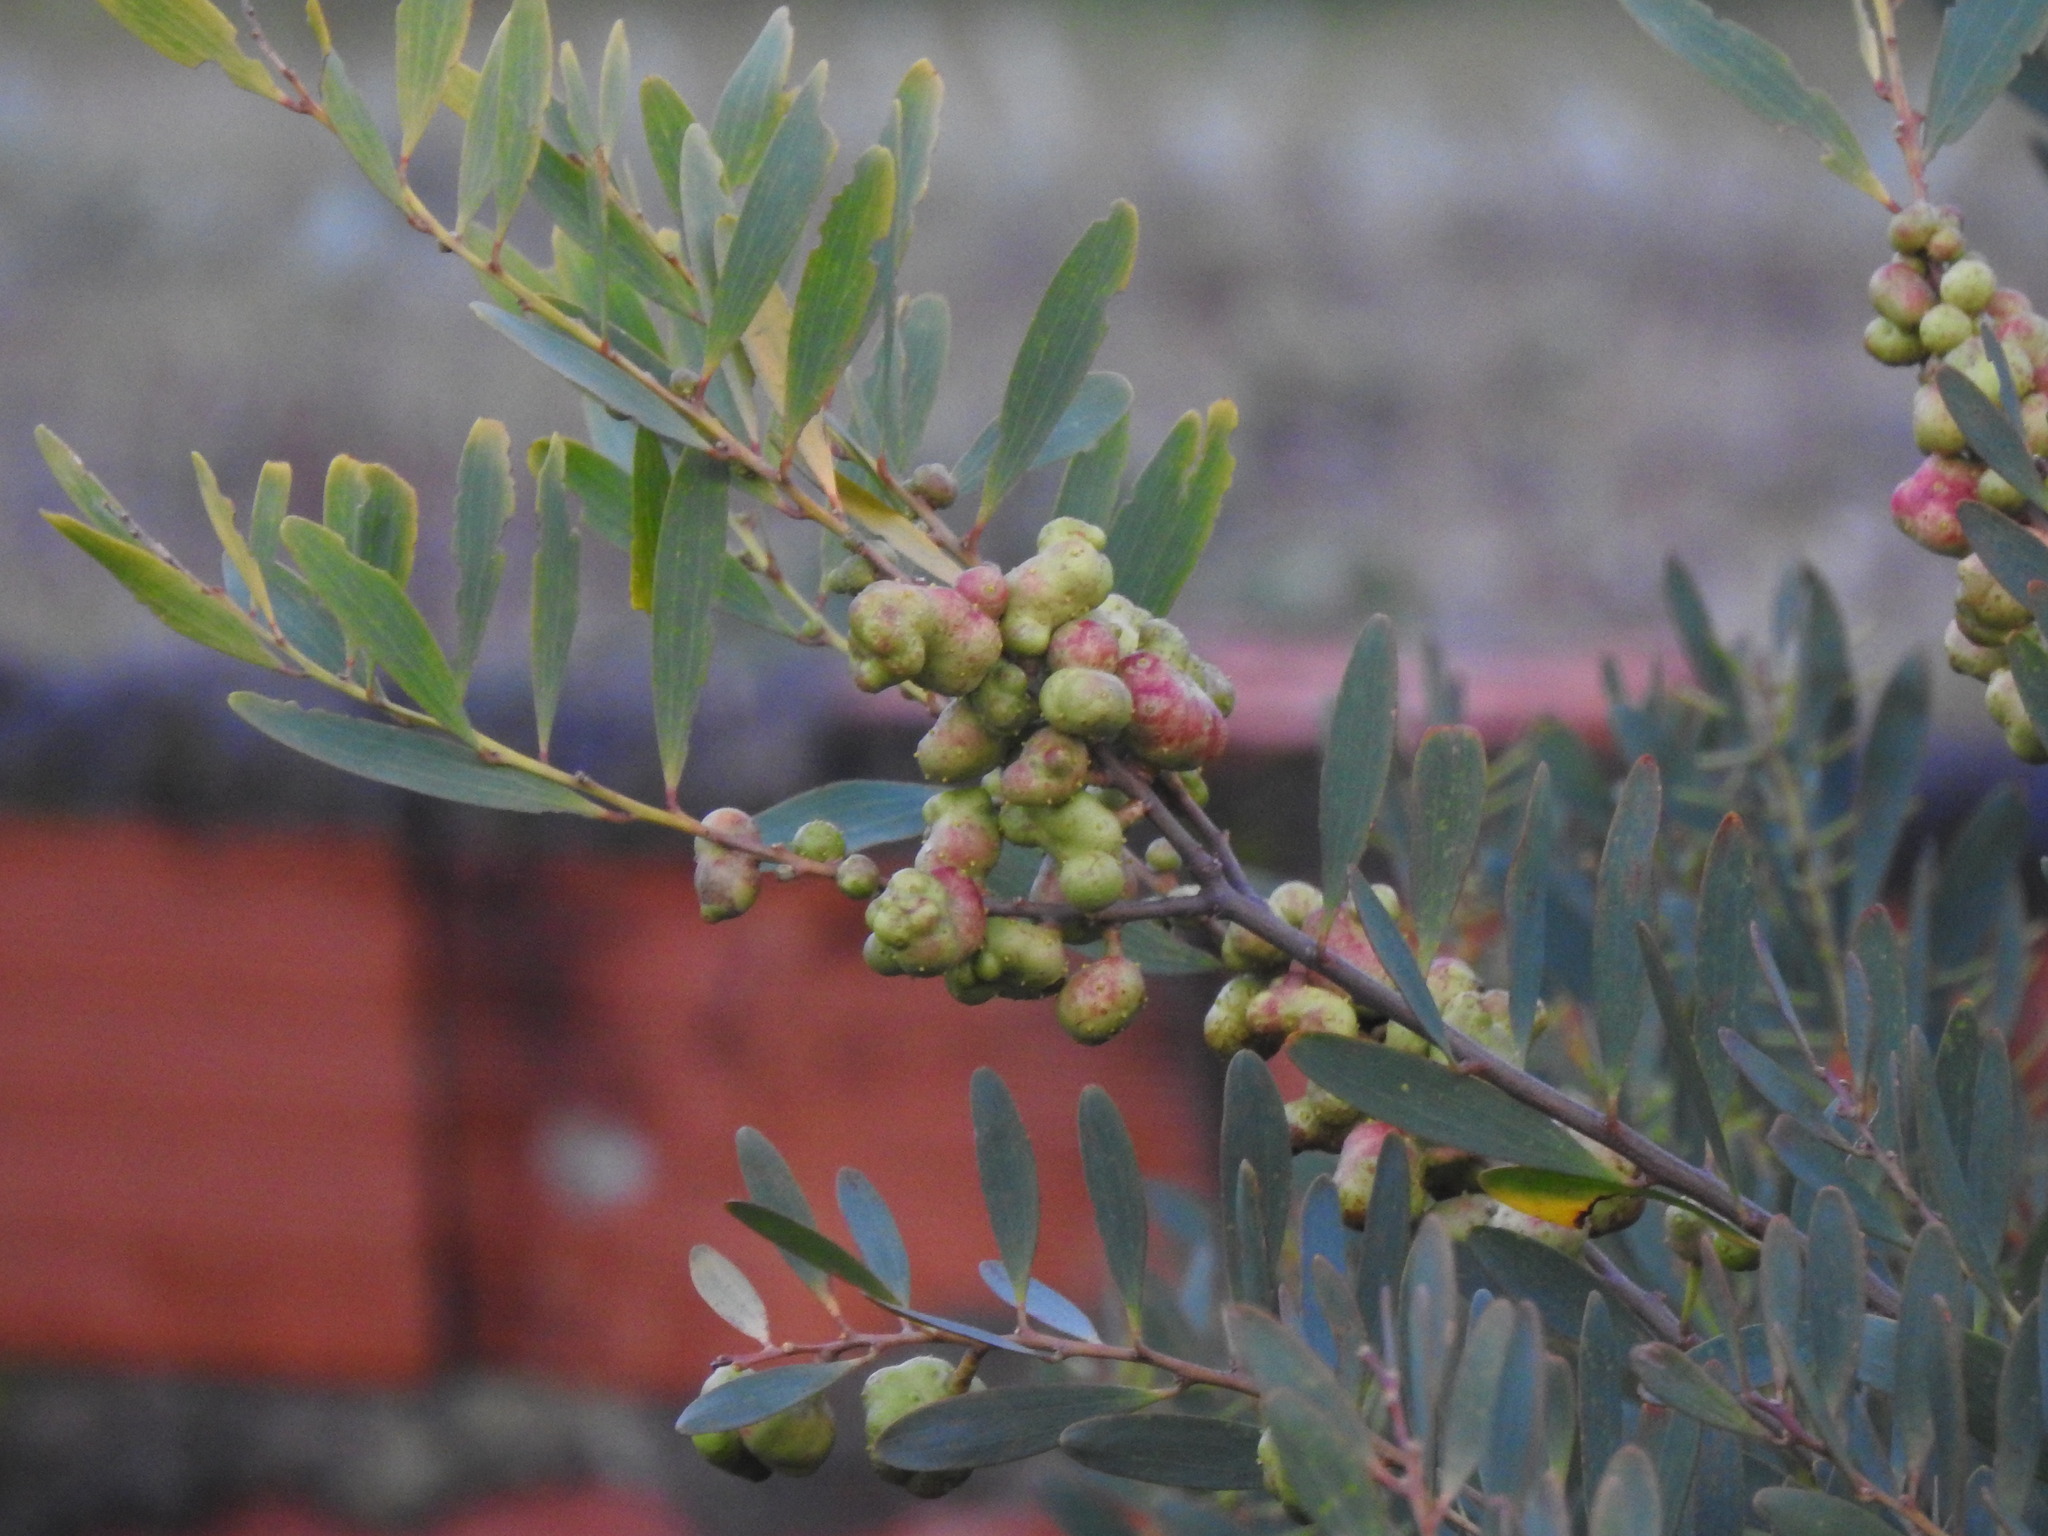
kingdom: Animalia
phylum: Arthropoda
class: Insecta
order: Hymenoptera
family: Pteromalidae
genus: Trichilogaster
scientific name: Trichilogaster acaciaelongifoliae
